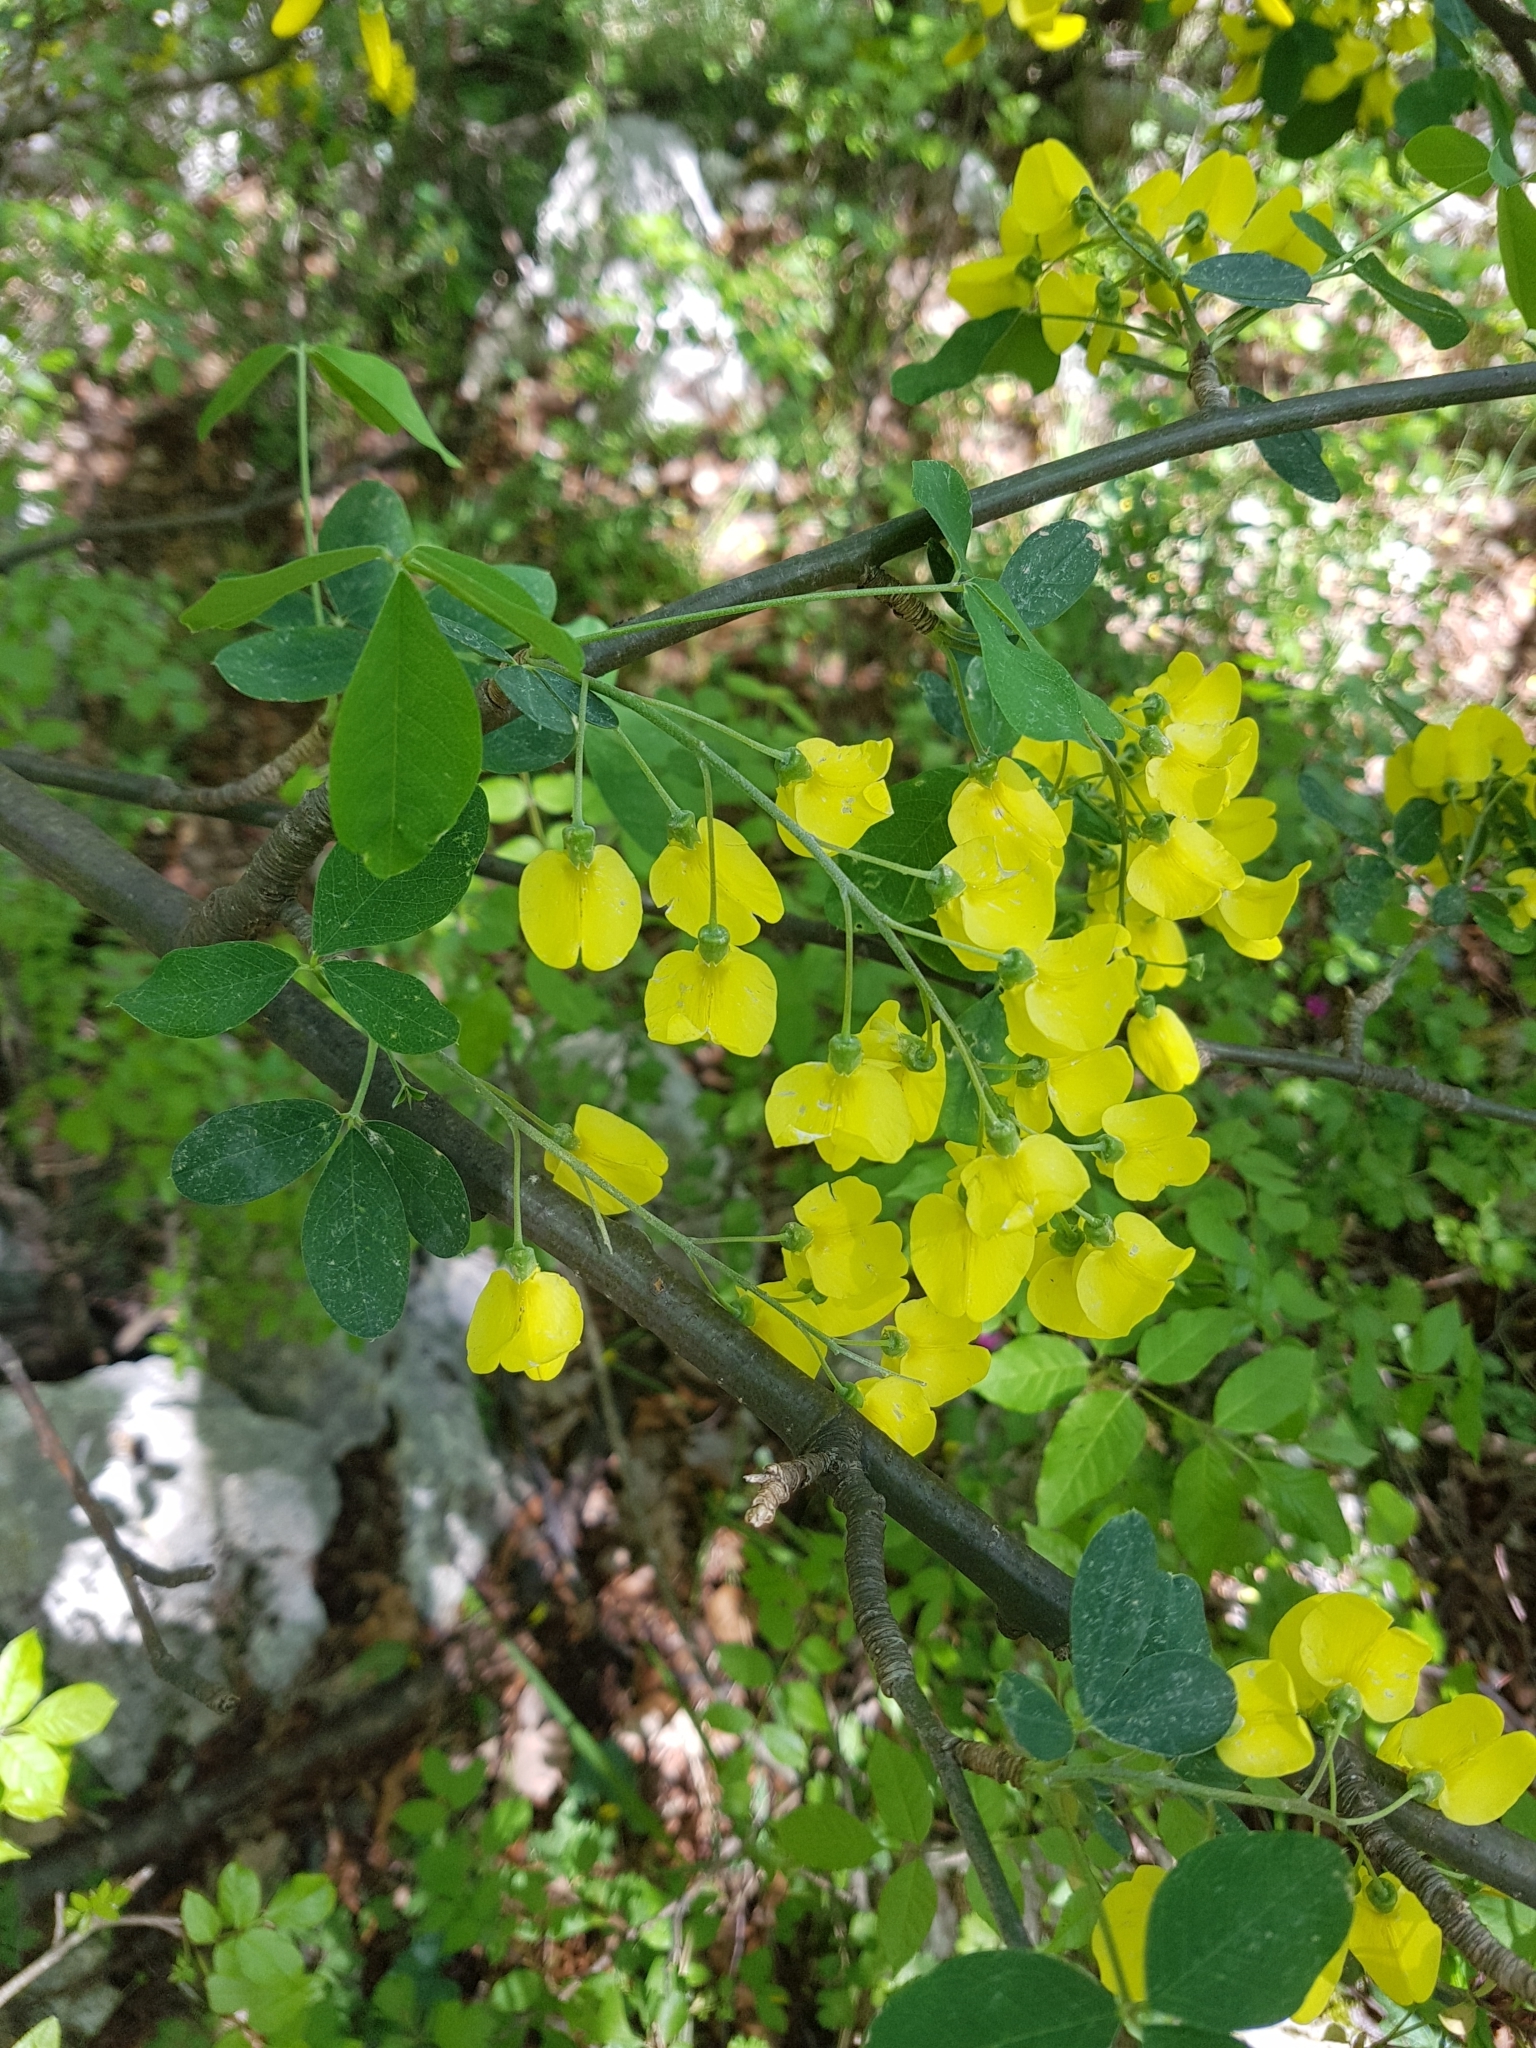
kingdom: Plantae
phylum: Tracheophyta
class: Magnoliopsida
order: Fabales
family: Fabaceae
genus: Laburnum
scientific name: Laburnum anagyroides
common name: Laburnum
